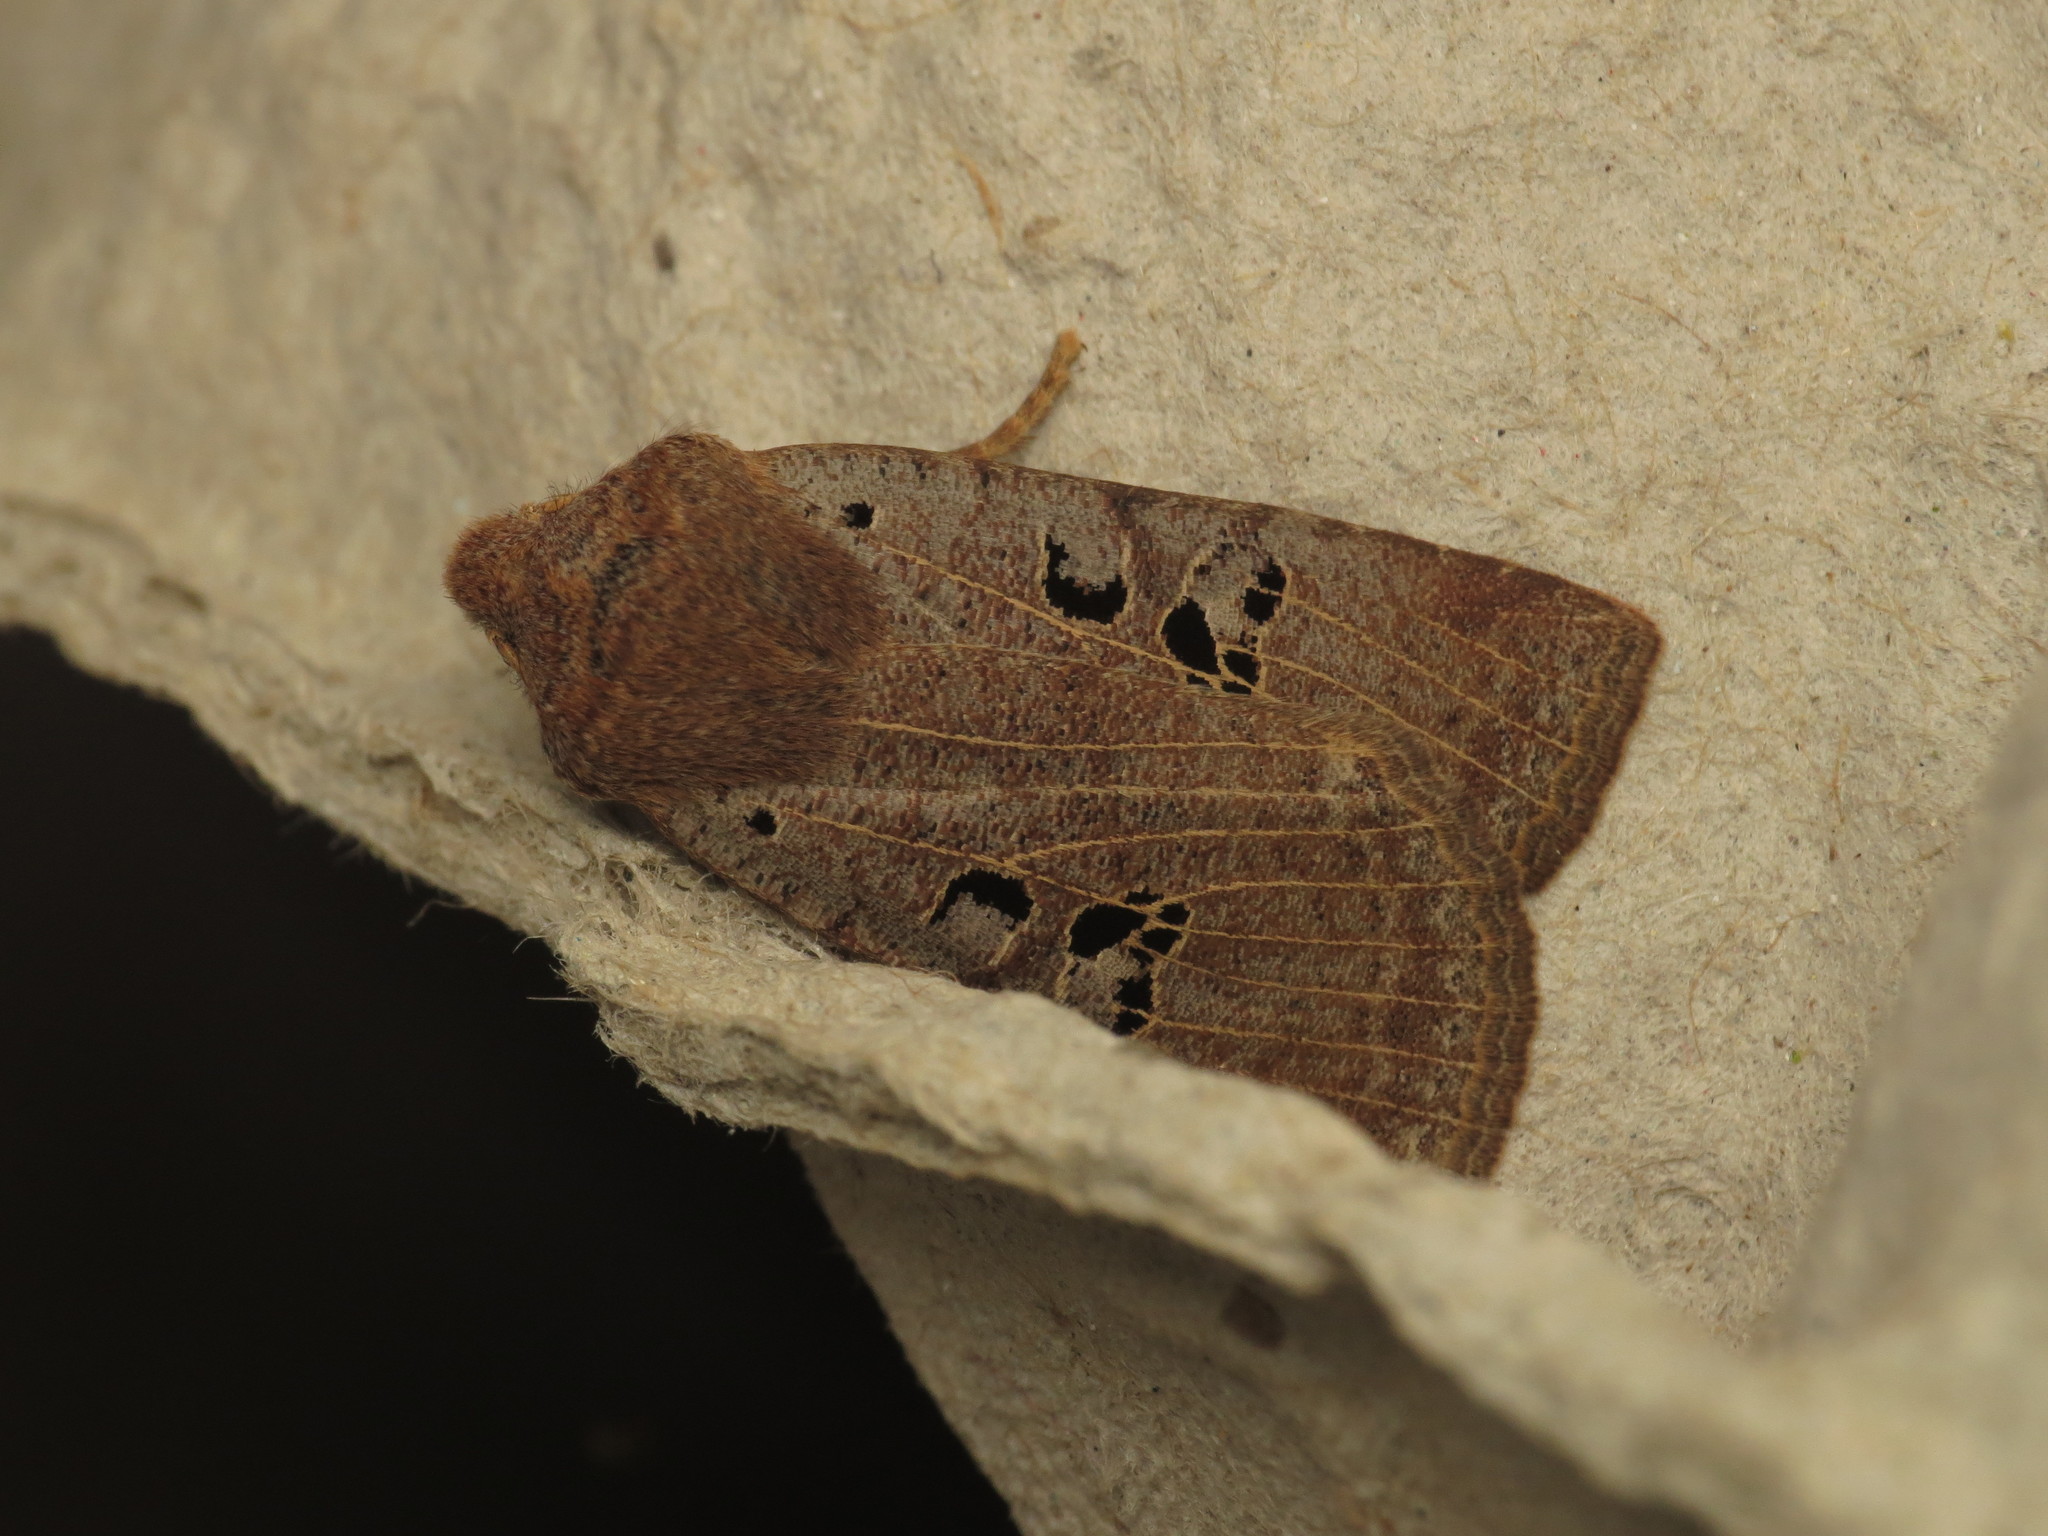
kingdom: Animalia
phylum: Arthropoda
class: Insecta
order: Lepidoptera
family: Noctuidae
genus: Conistra
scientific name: Conistra rubiginosa
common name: Black-spotted chestnut
